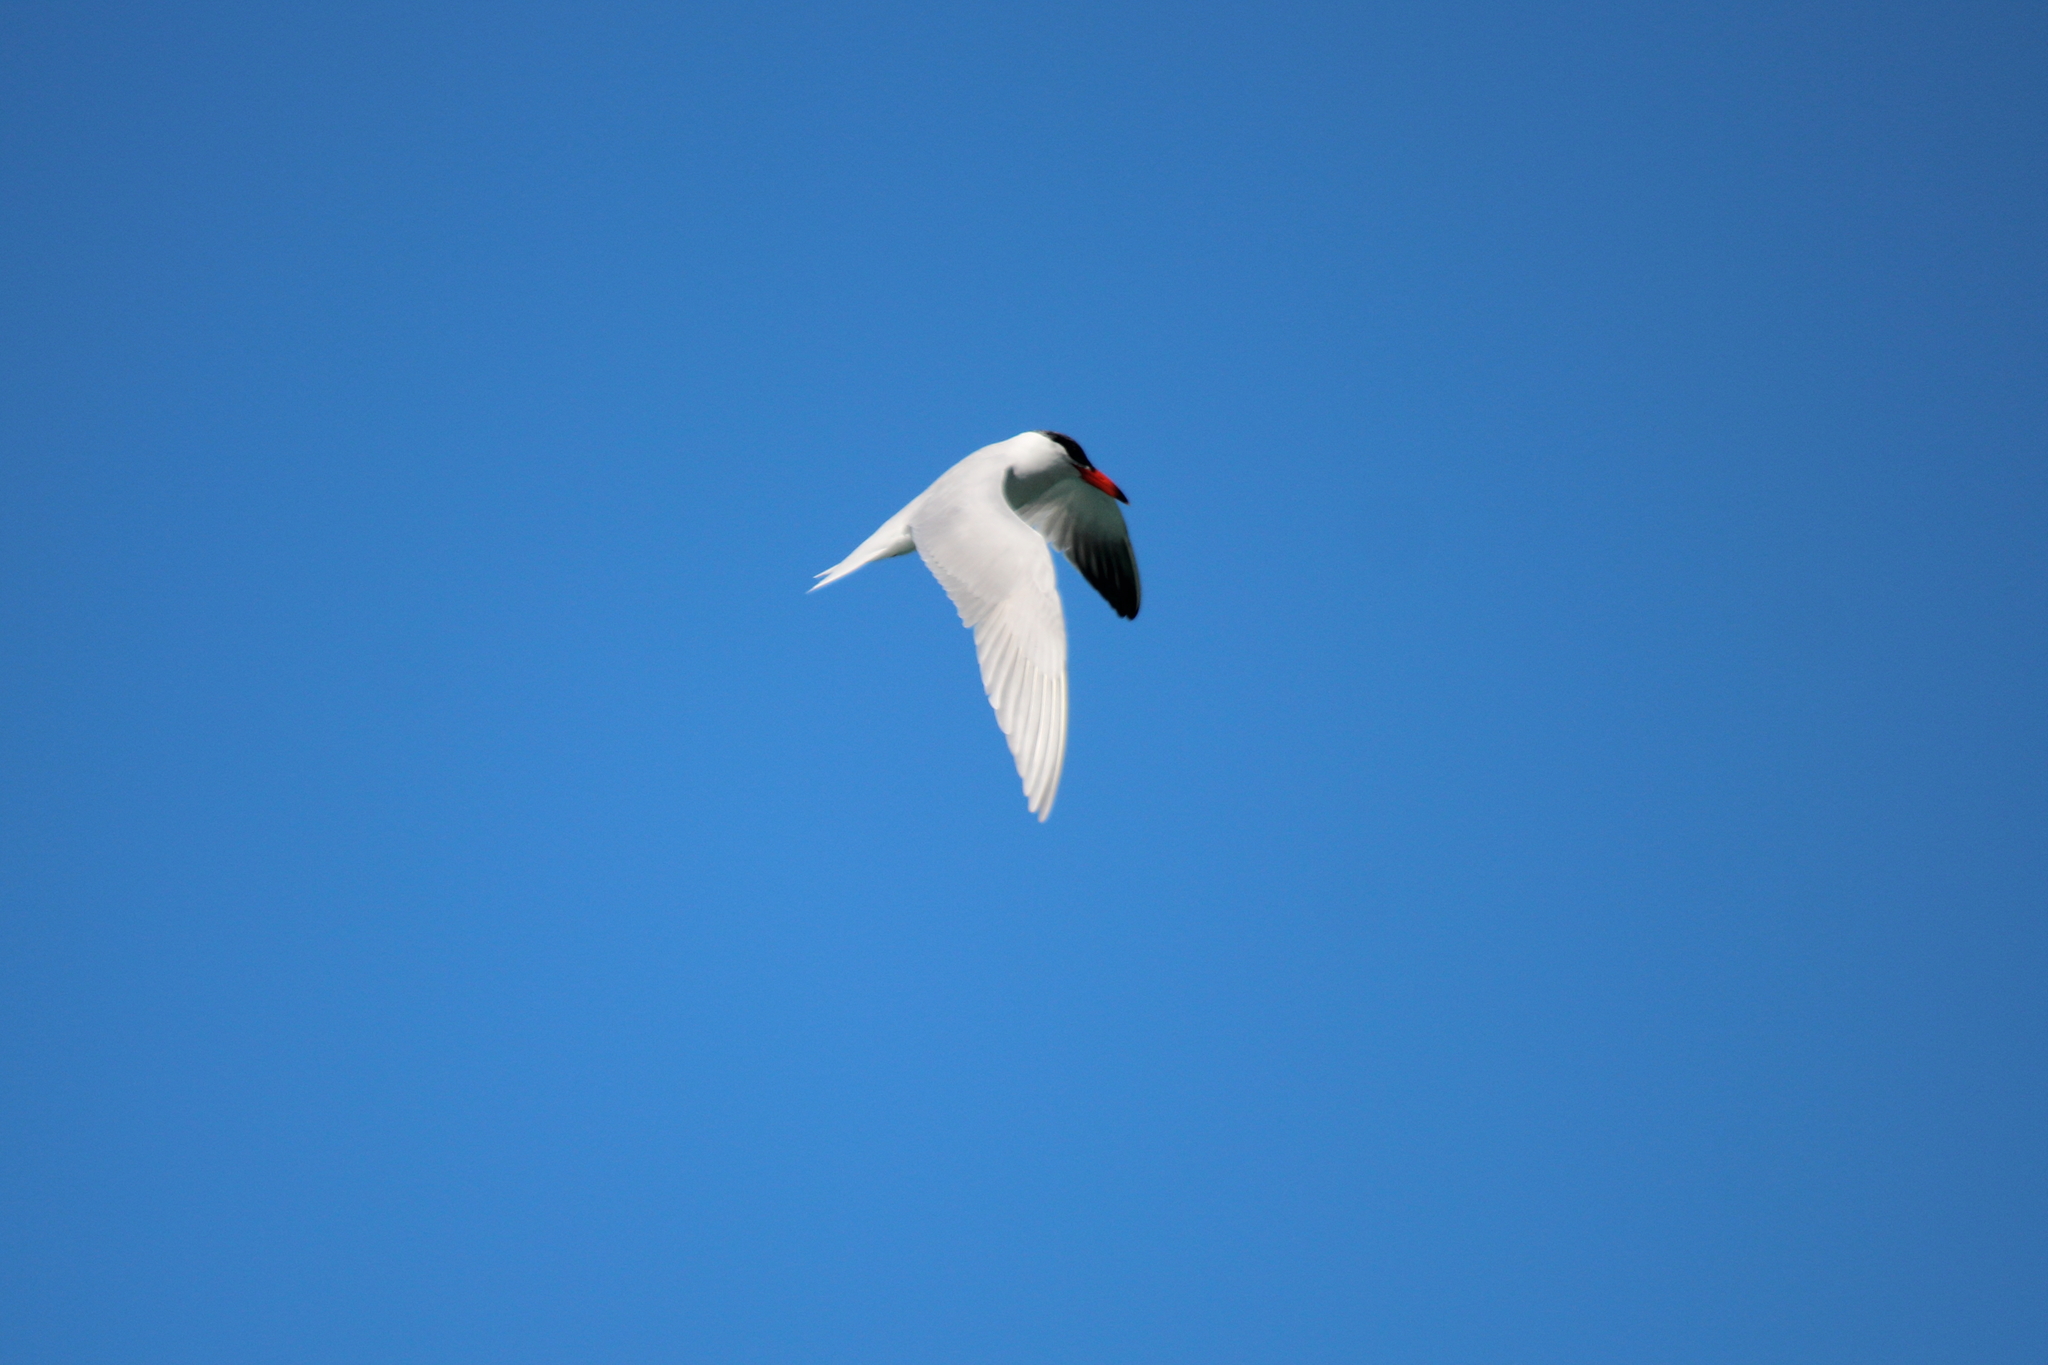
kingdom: Animalia
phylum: Chordata
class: Aves
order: Charadriiformes
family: Laridae
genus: Hydroprogne
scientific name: Hydroprogne caspia
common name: Caspian tern
